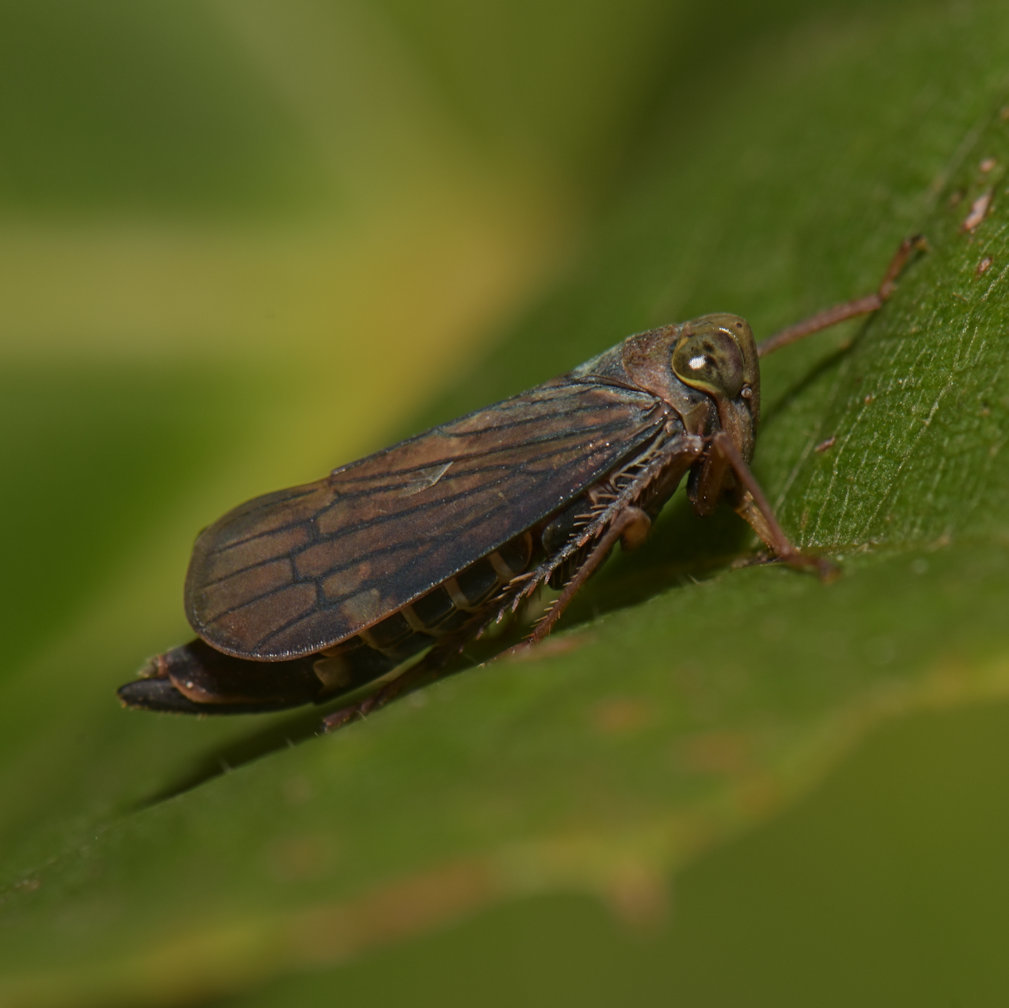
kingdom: Animalia
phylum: Arthropoda
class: Insecta
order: Hemiptera
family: Cicadellidae
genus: Jikradia
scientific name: Jikradia olitoria
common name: Coppery leafhopper
